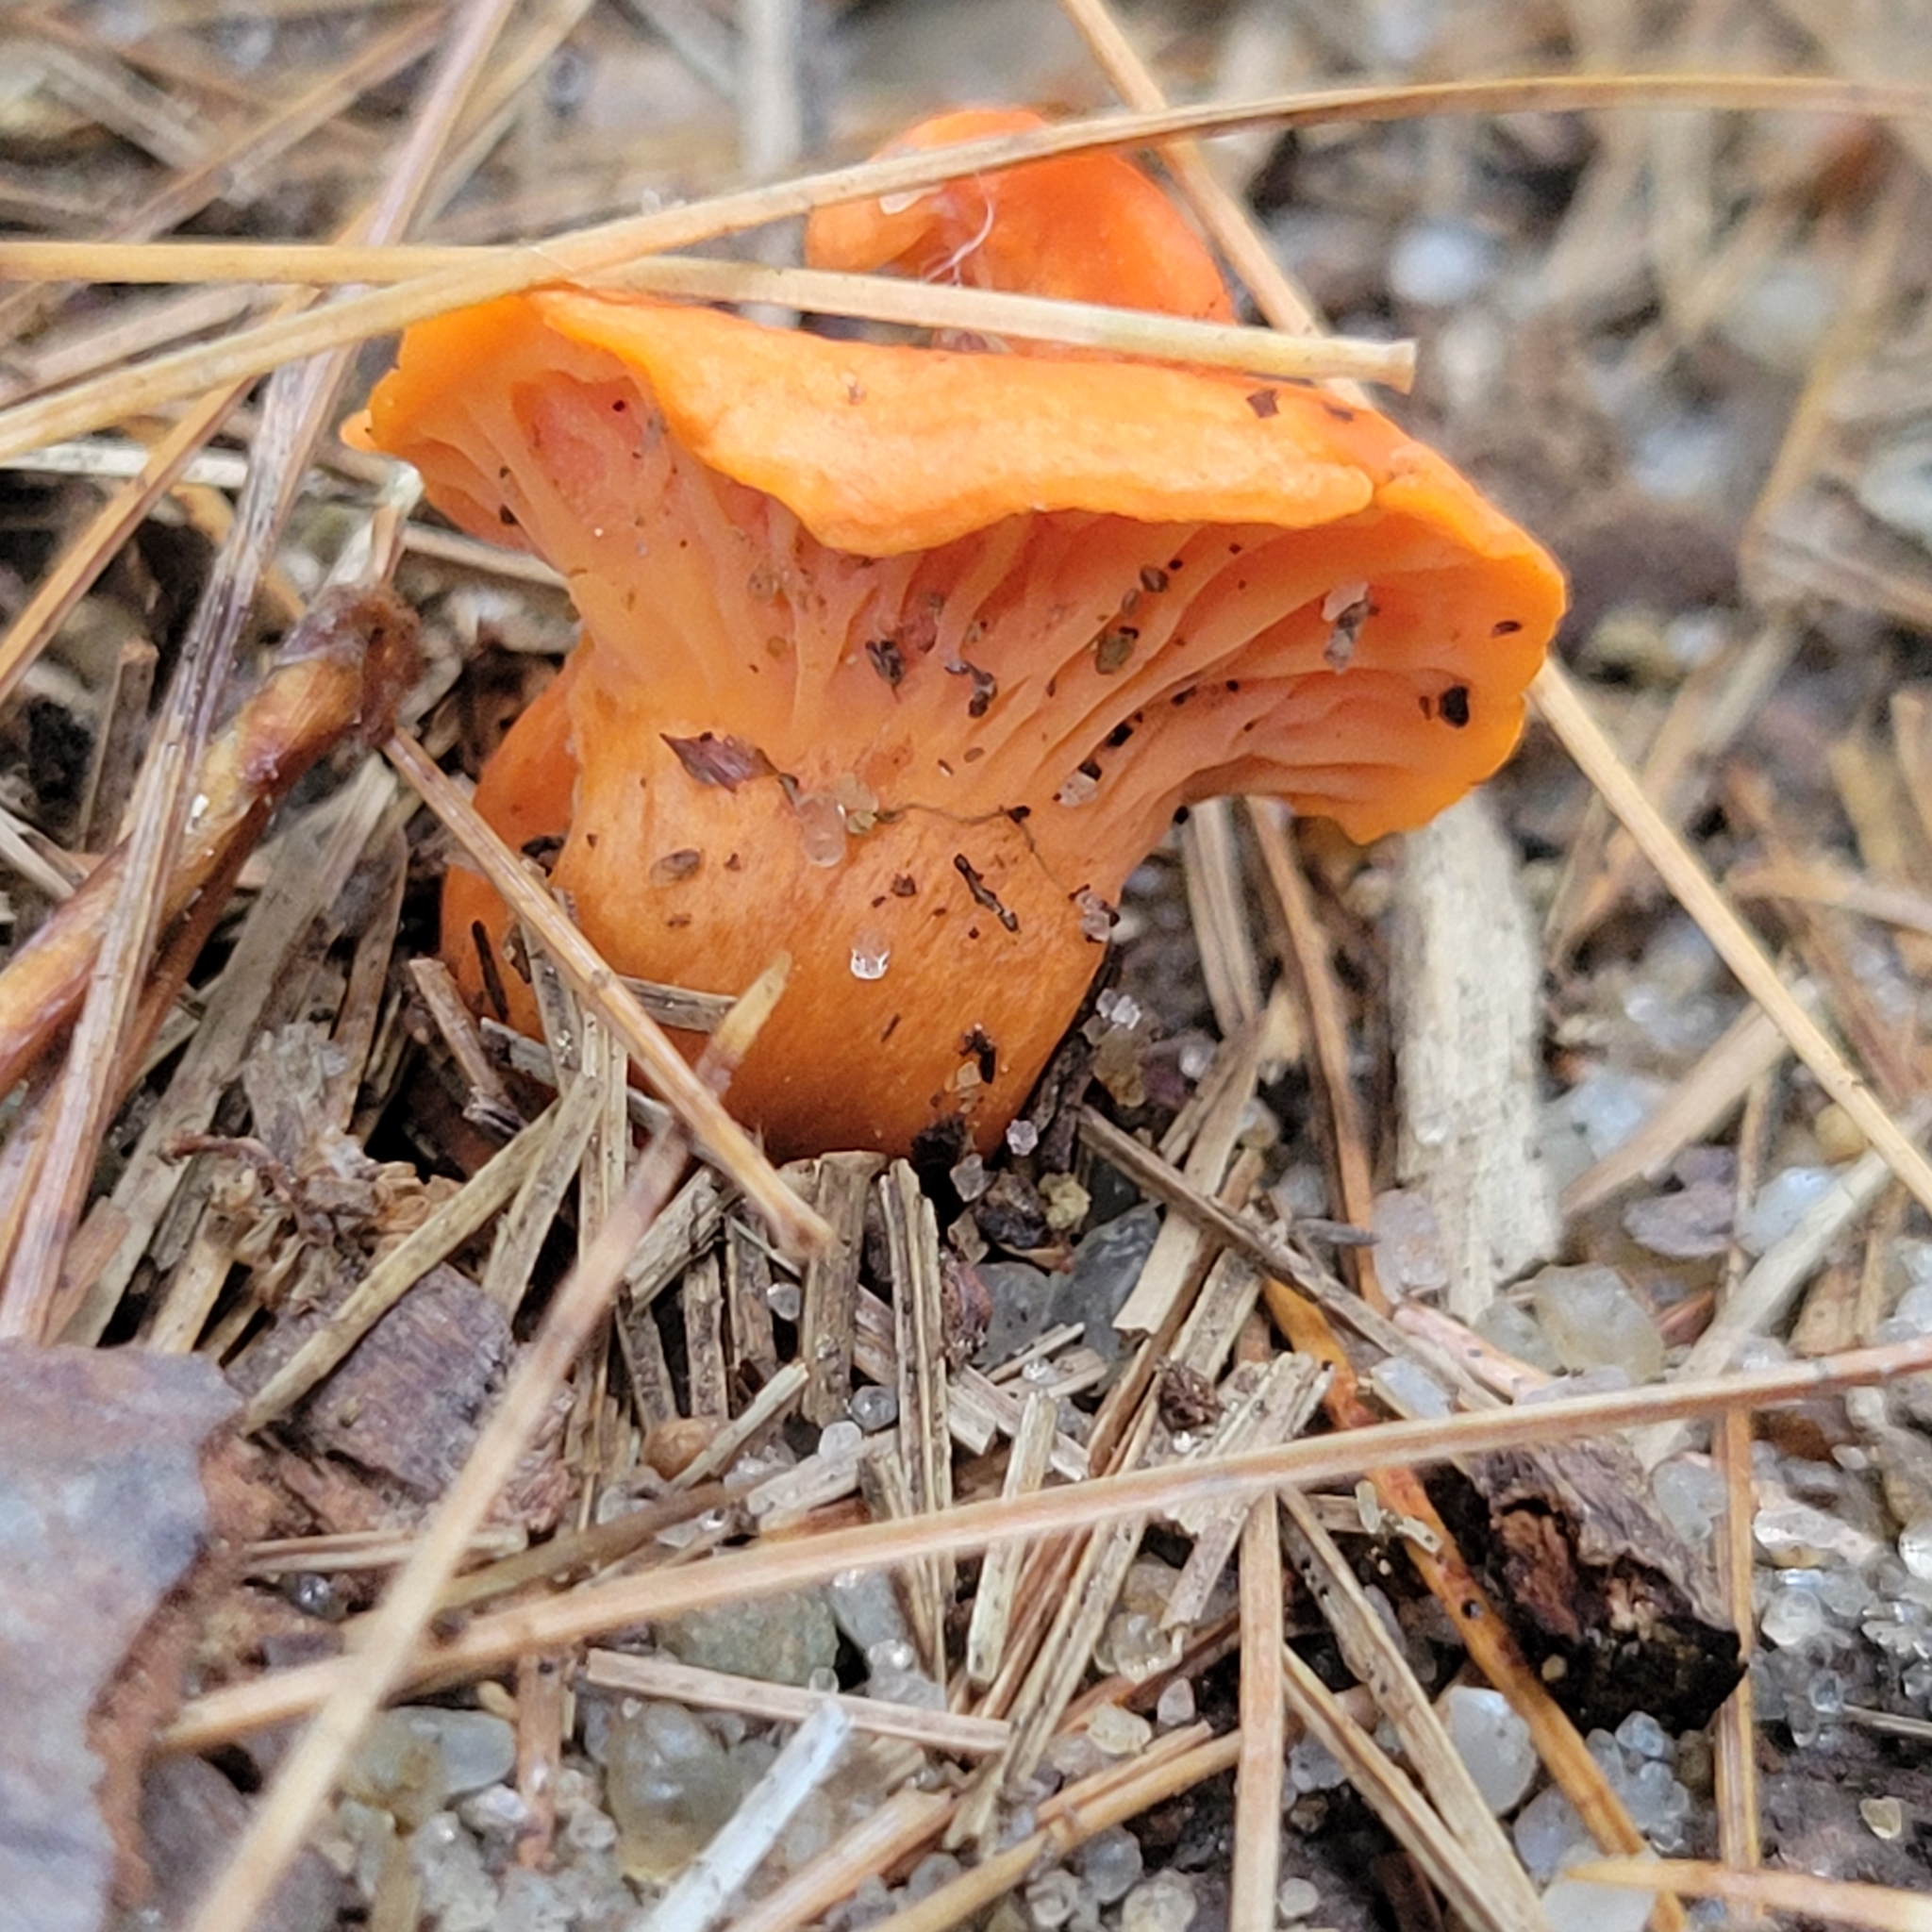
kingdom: Fungi
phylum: Basidiomycota
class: Agaricomycetes
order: Cantharellales
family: Hydnaceae
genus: Cantharellus
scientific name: Cantharellus cinnabarinus
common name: Cinnabar chanterelle
